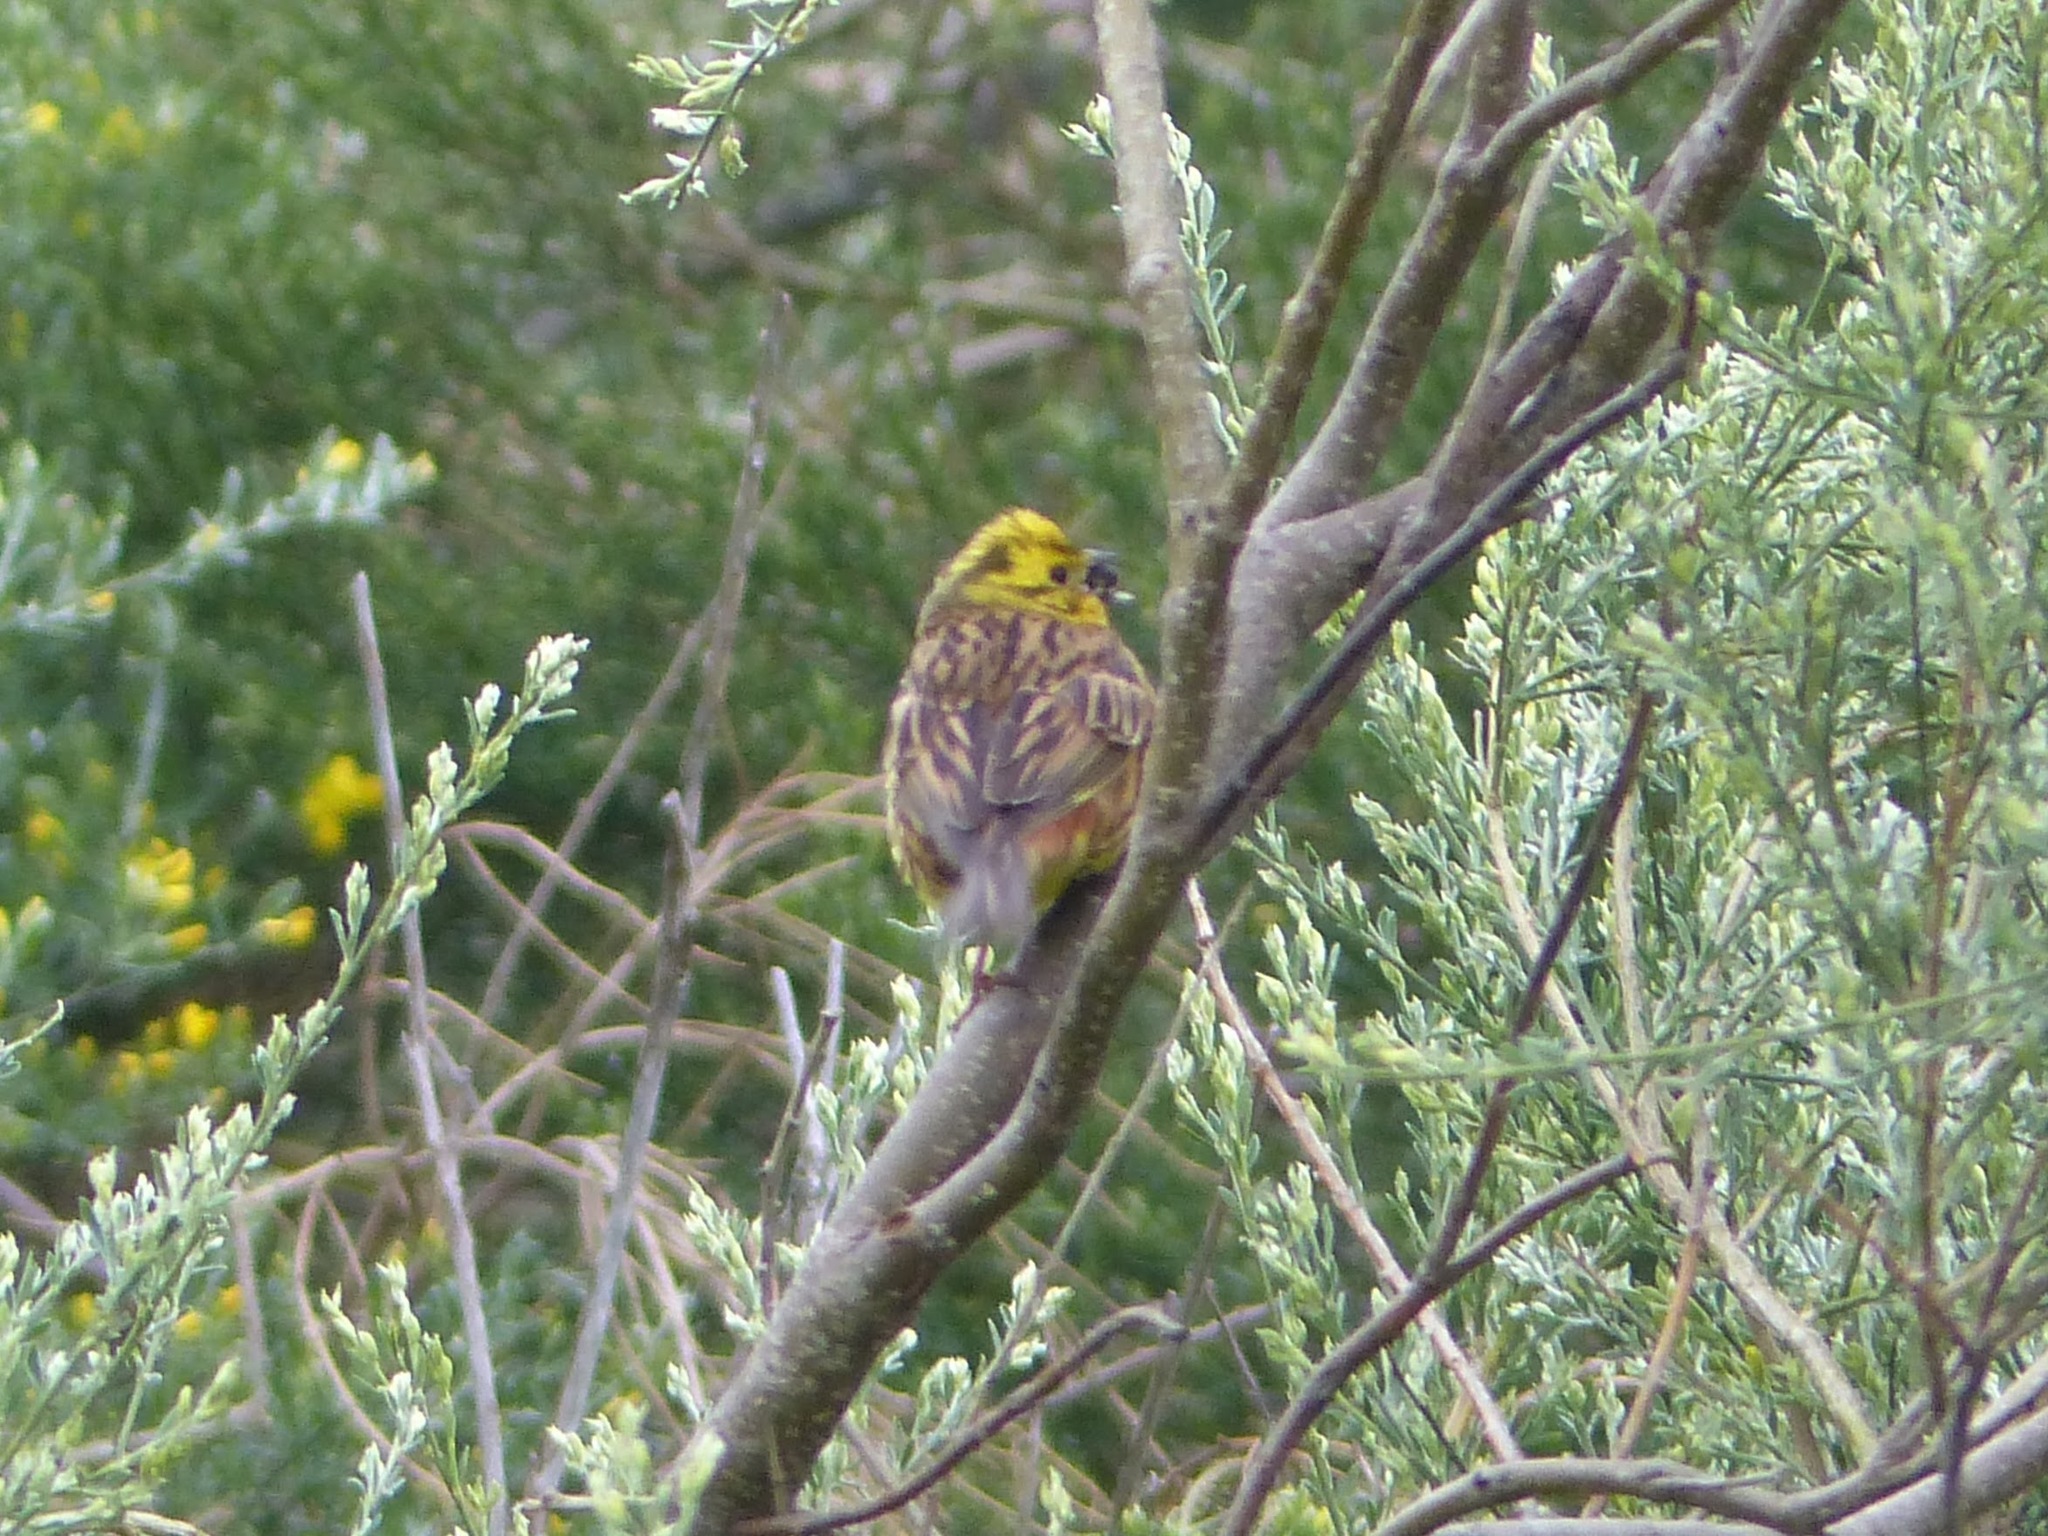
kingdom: Animalia
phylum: Chordata
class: Aves
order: Passeriformes
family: Emberizidae
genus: Emberiza
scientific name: Emberiza citrinella
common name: Yellowhammer
